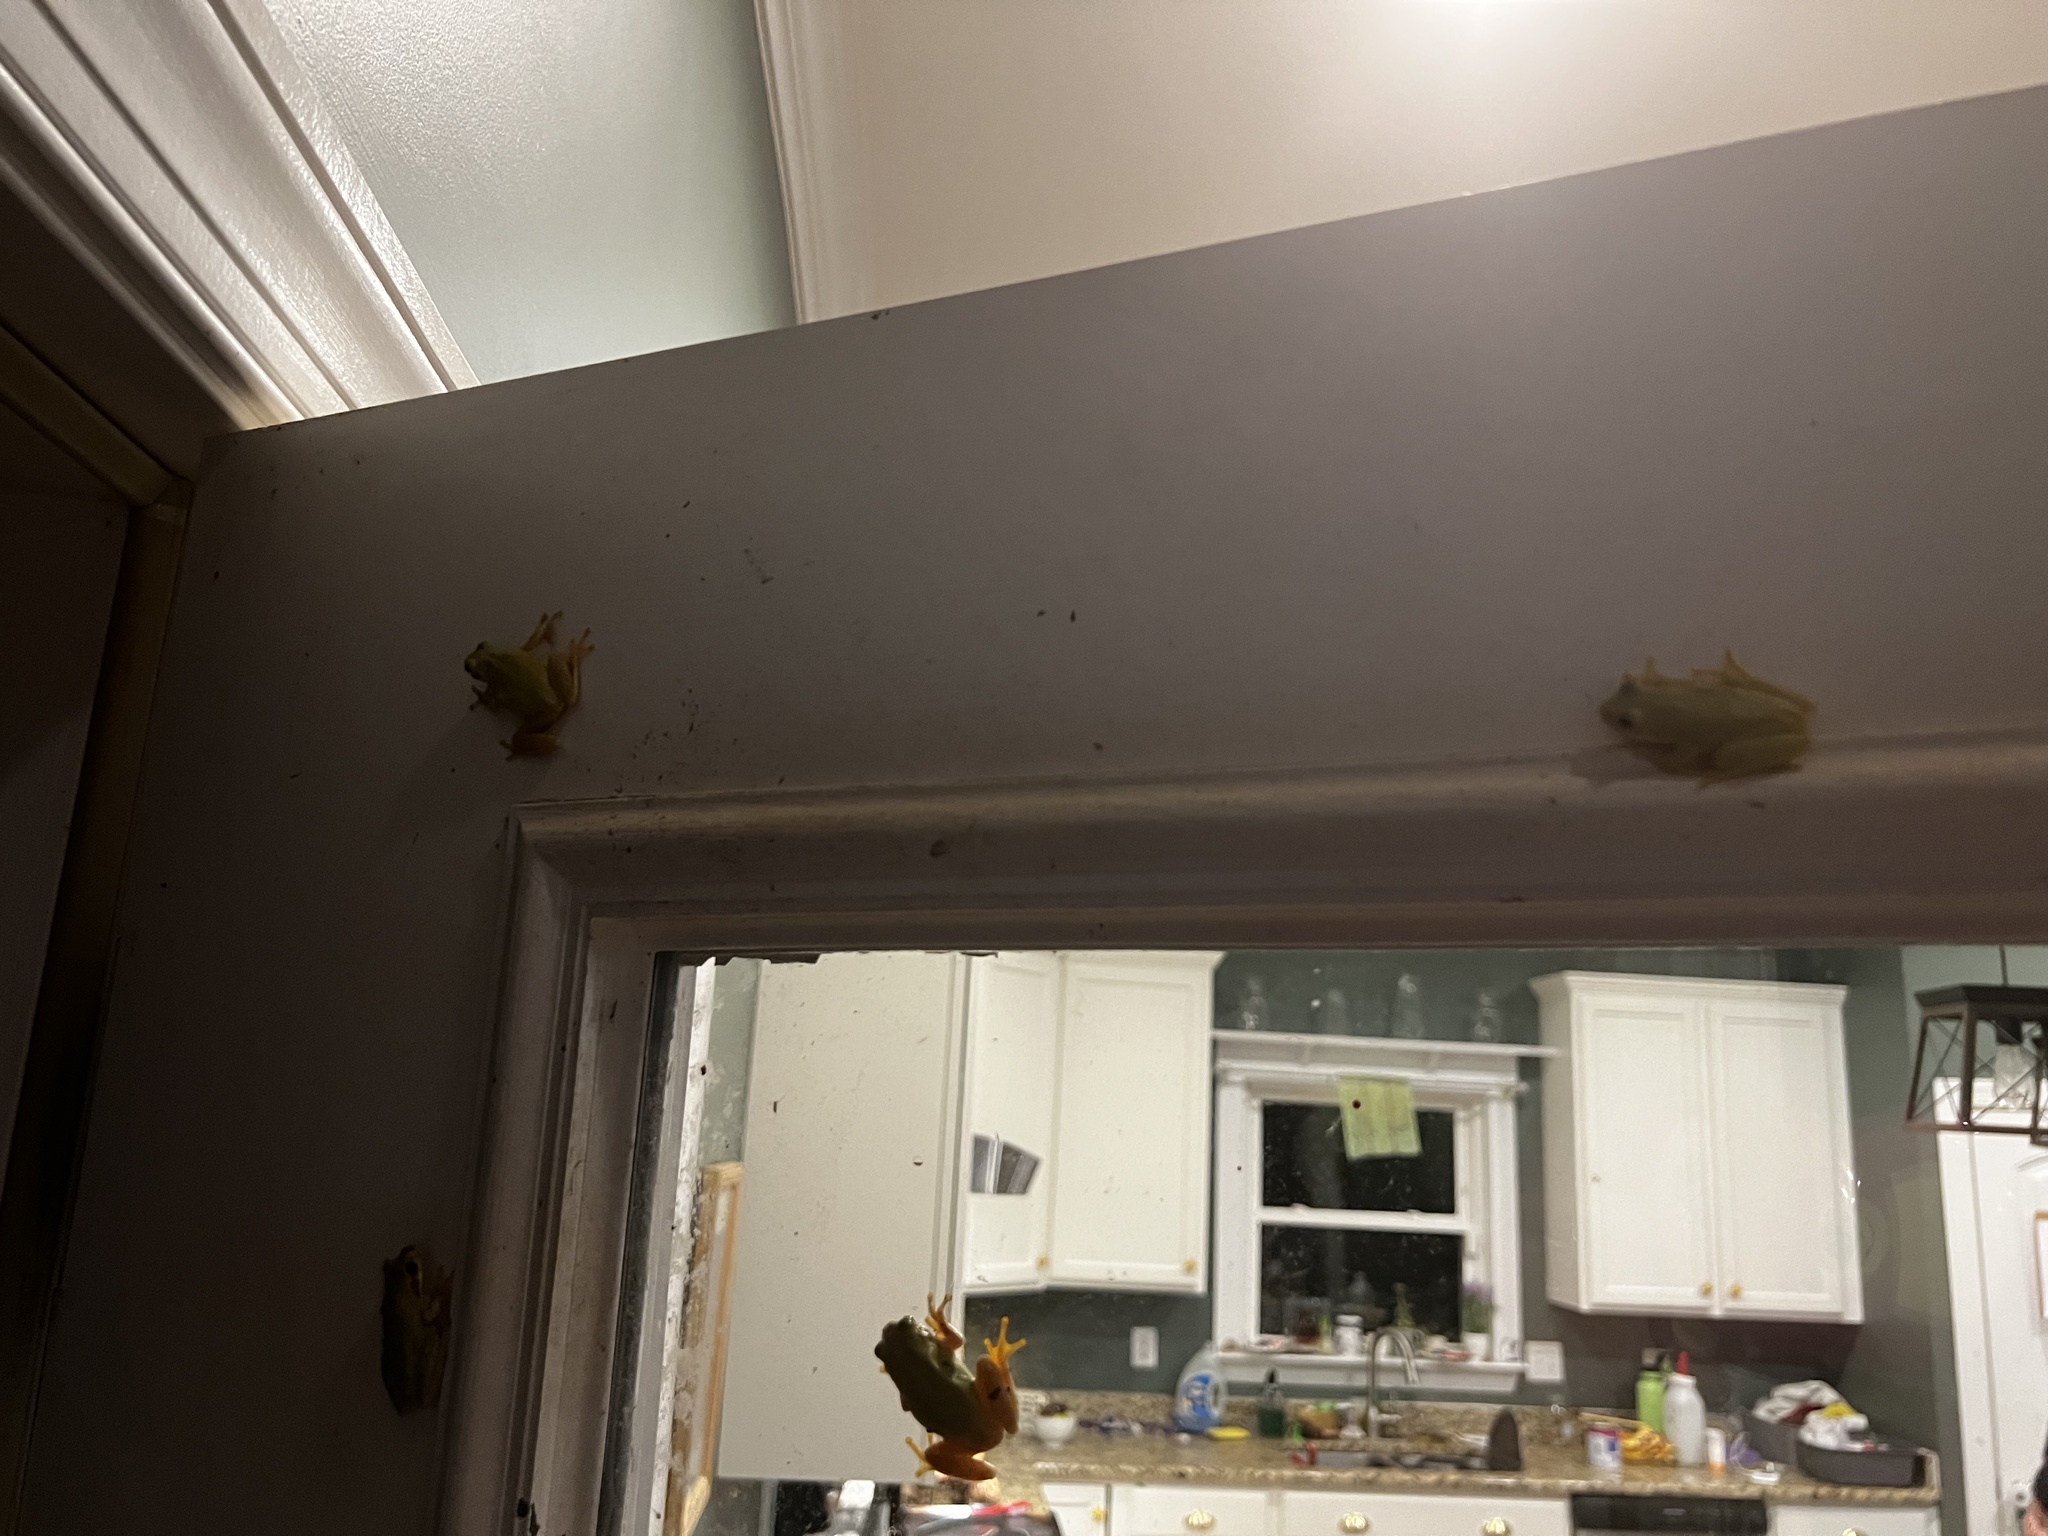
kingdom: Animalia
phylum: Chordata
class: Amphibia
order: Anura
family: Hylidae
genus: Dryophytes
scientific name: Dryophytes squirellus
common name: Squirrel treefrog
